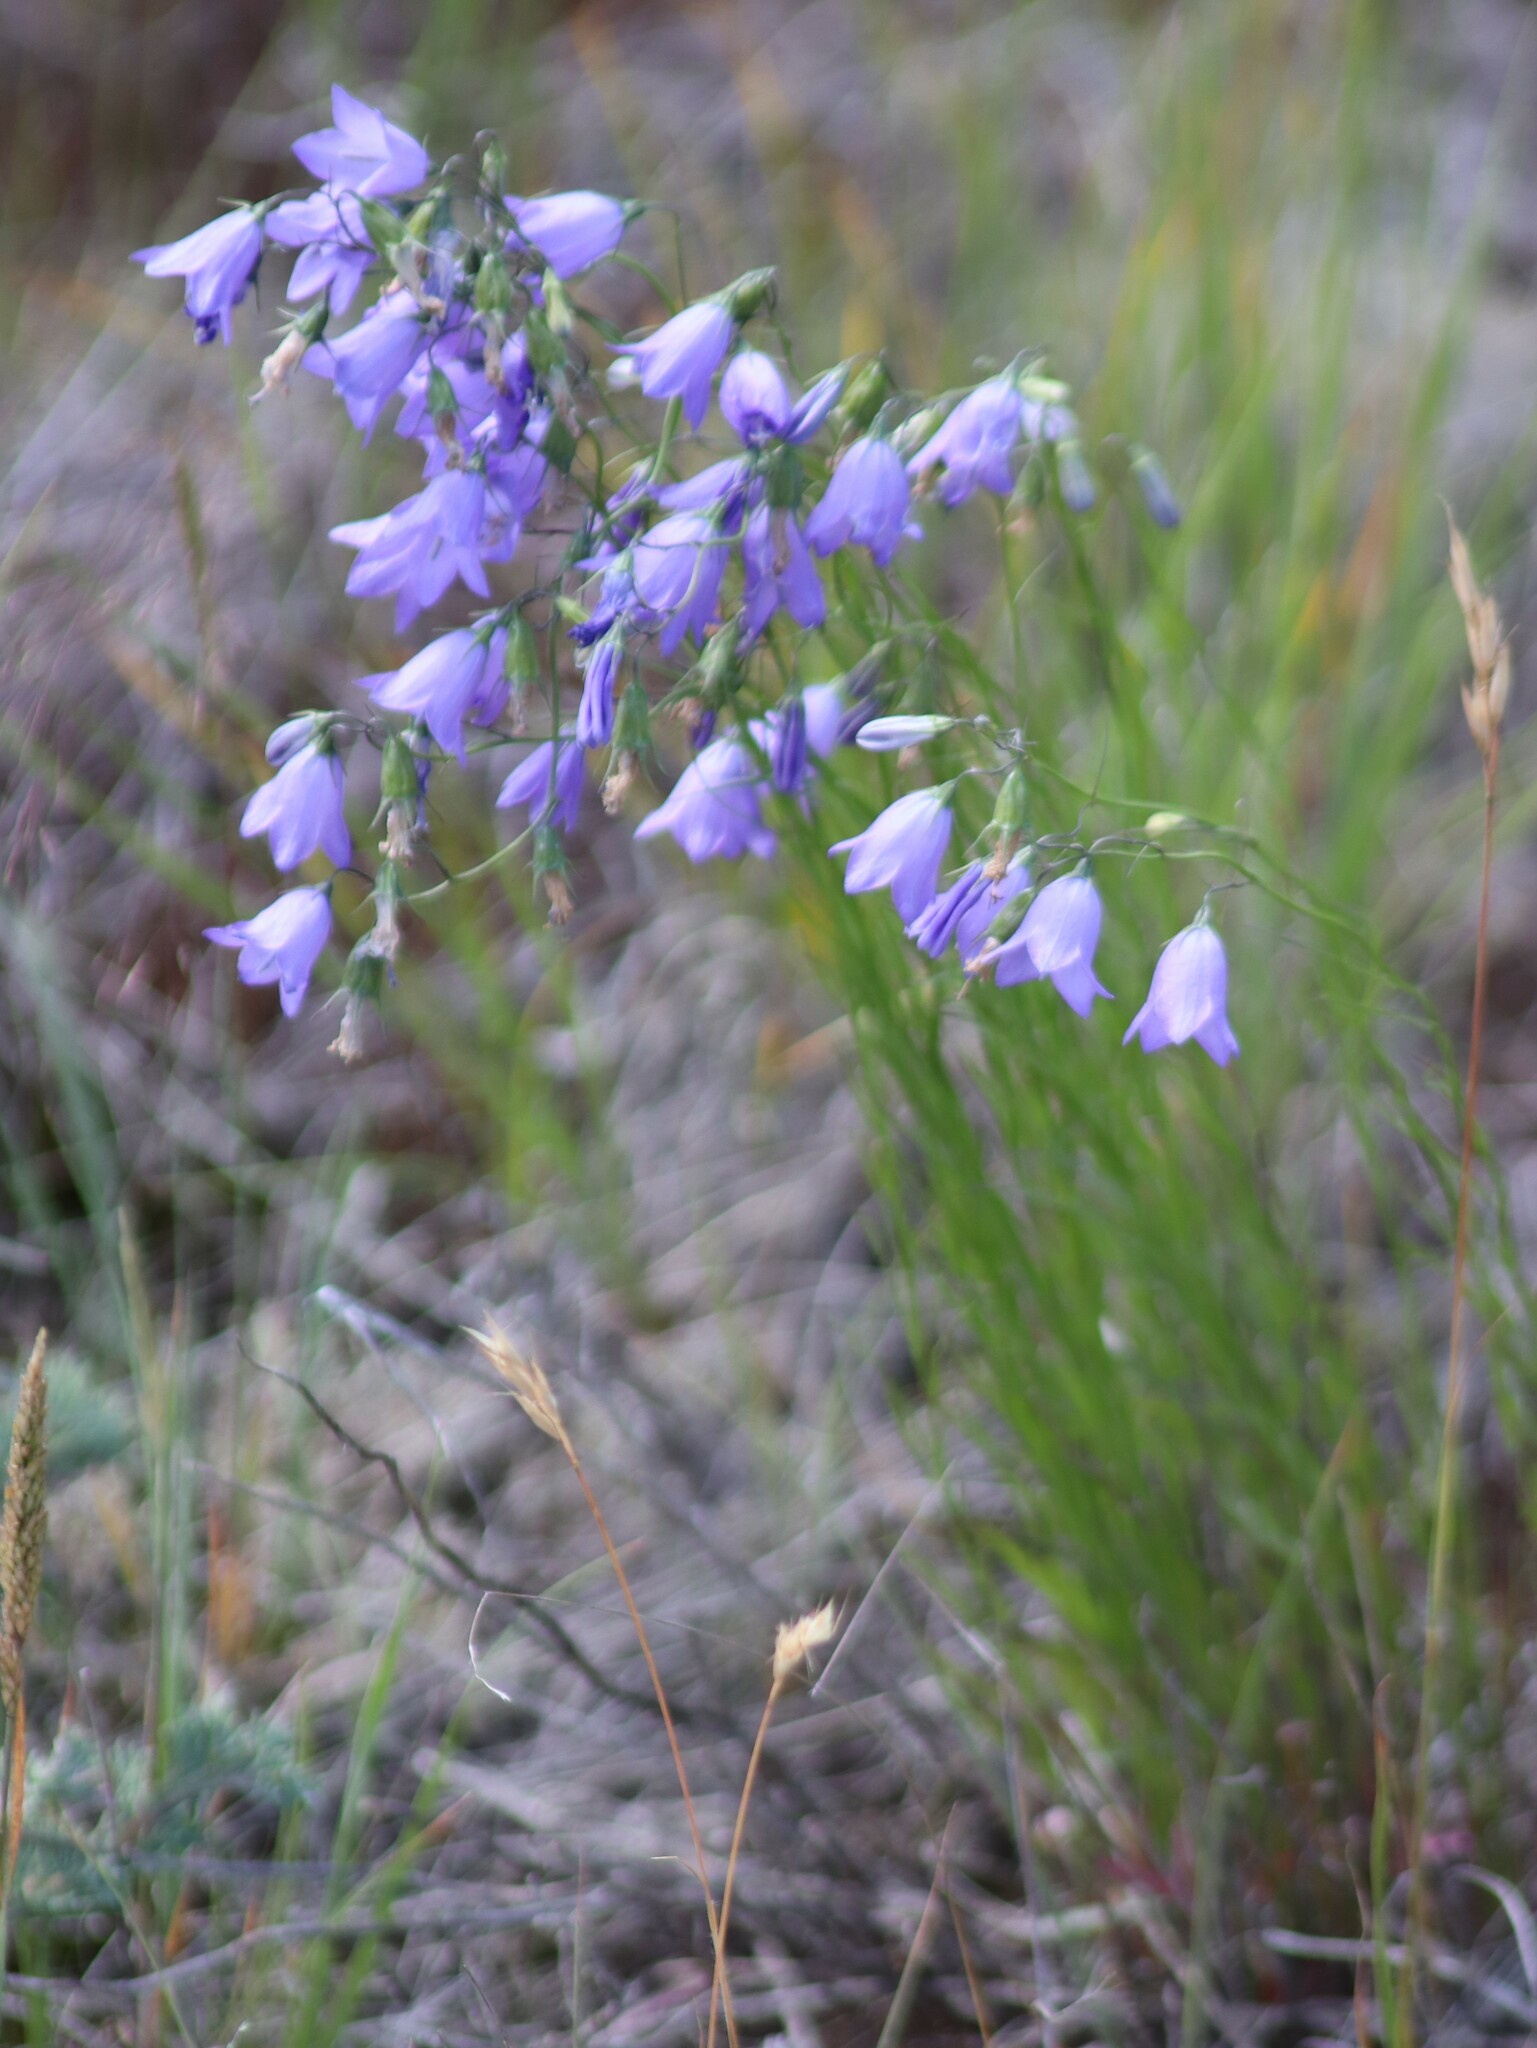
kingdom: Plantae
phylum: Tracheophyta
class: Magnoliopsida
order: Asterales
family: Campanulaceae
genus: Campanula
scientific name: Campanula alaskana
